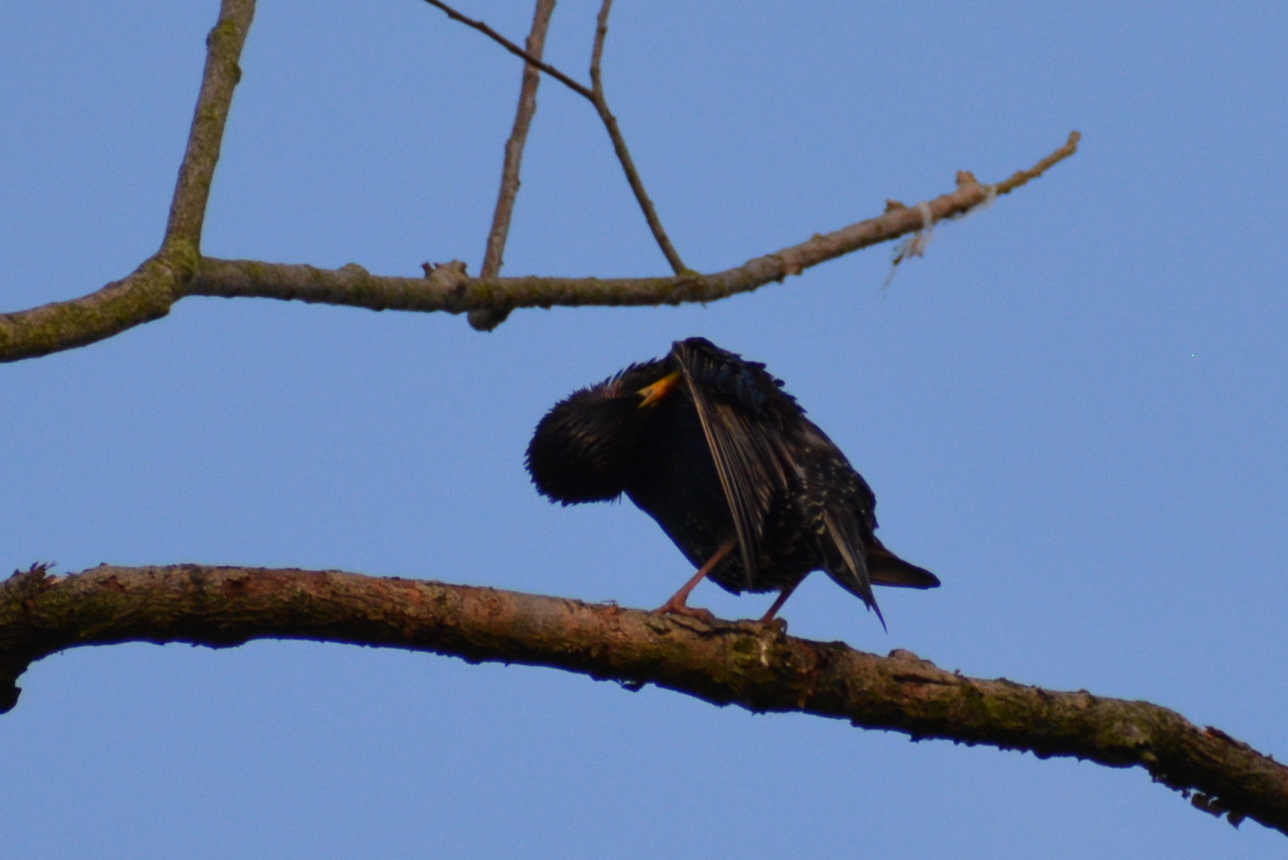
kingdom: Animalia
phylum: Chordata
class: Aves
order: Passeriformes
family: Sturnidae
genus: Sturnus
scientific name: Sturnus vulgaris
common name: Common starling
